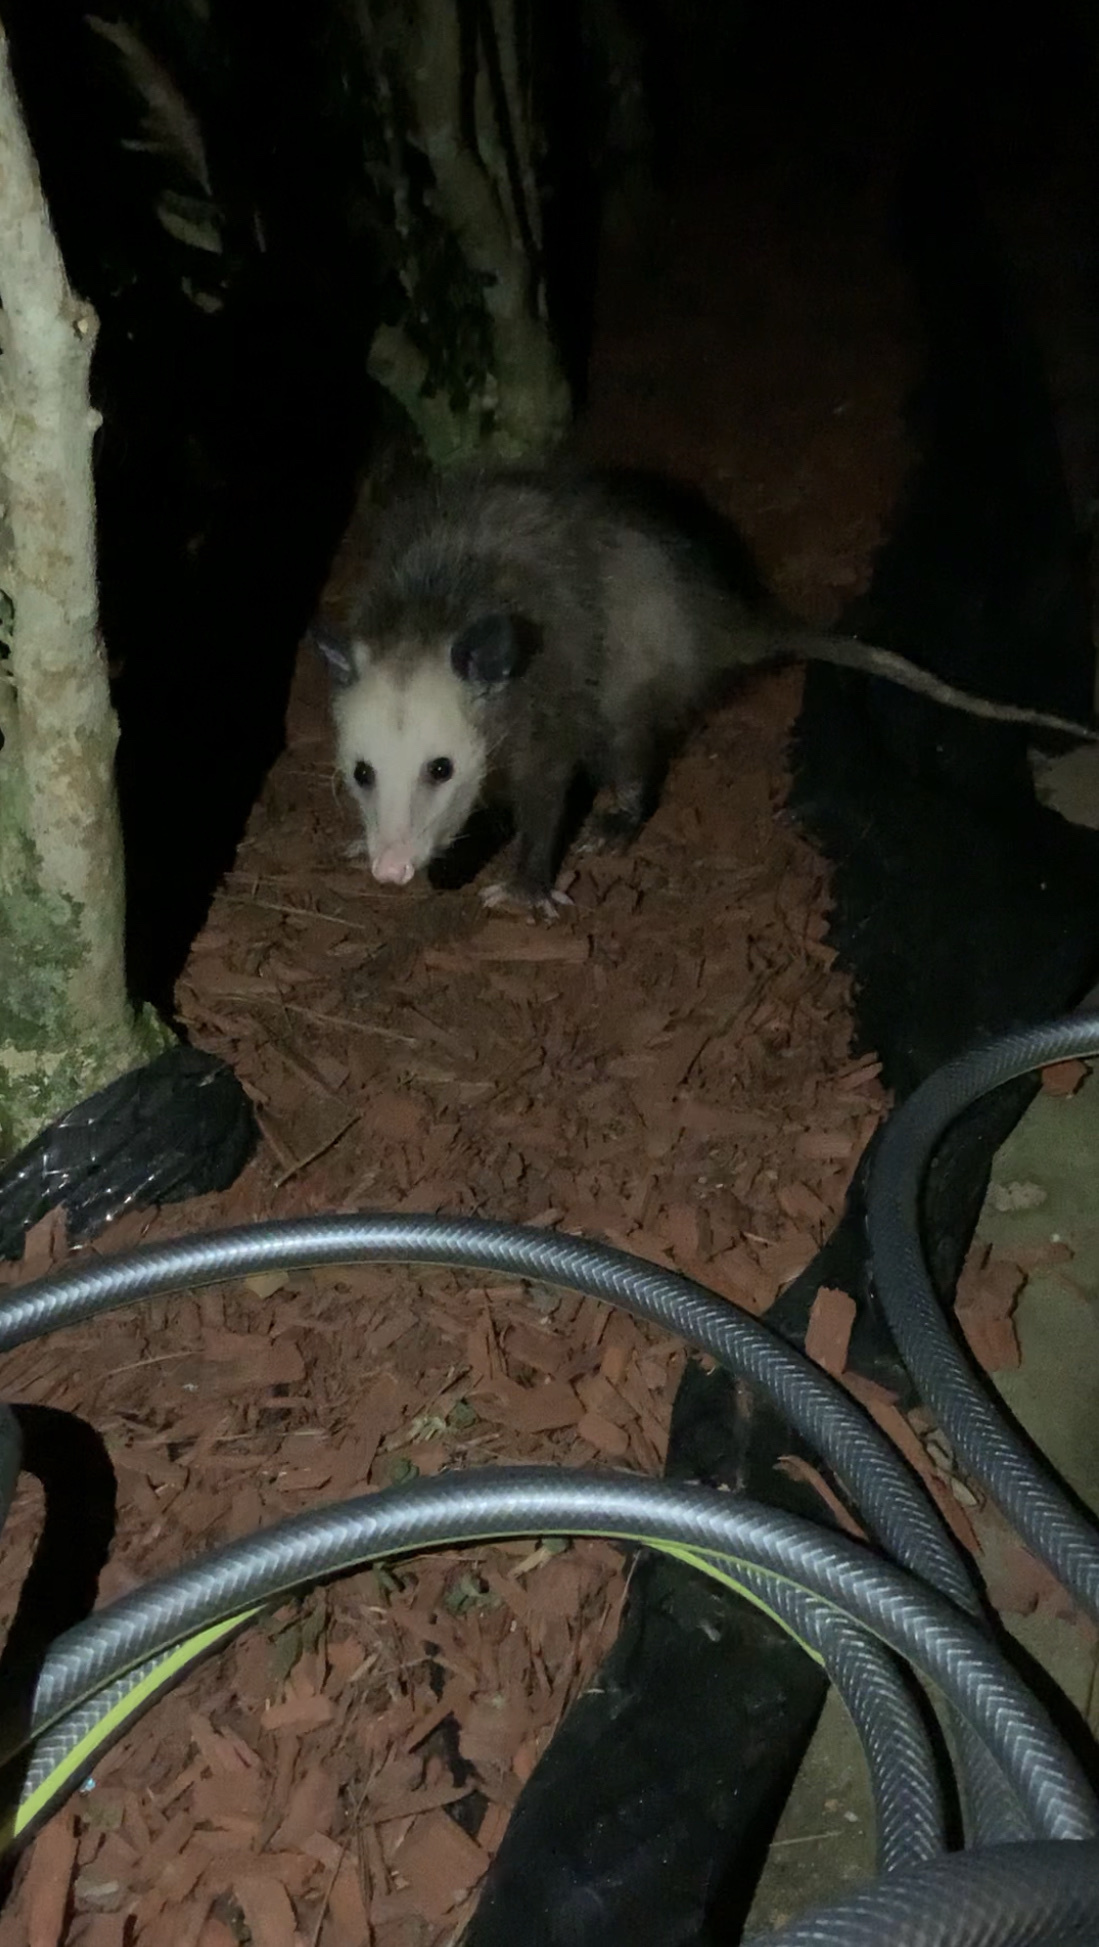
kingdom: Animalia
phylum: Chordata
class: Mammalia
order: Didelphimorphia
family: Didelphidae
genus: Didelphis
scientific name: Didelphis virginiana
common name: Virginia opossum
